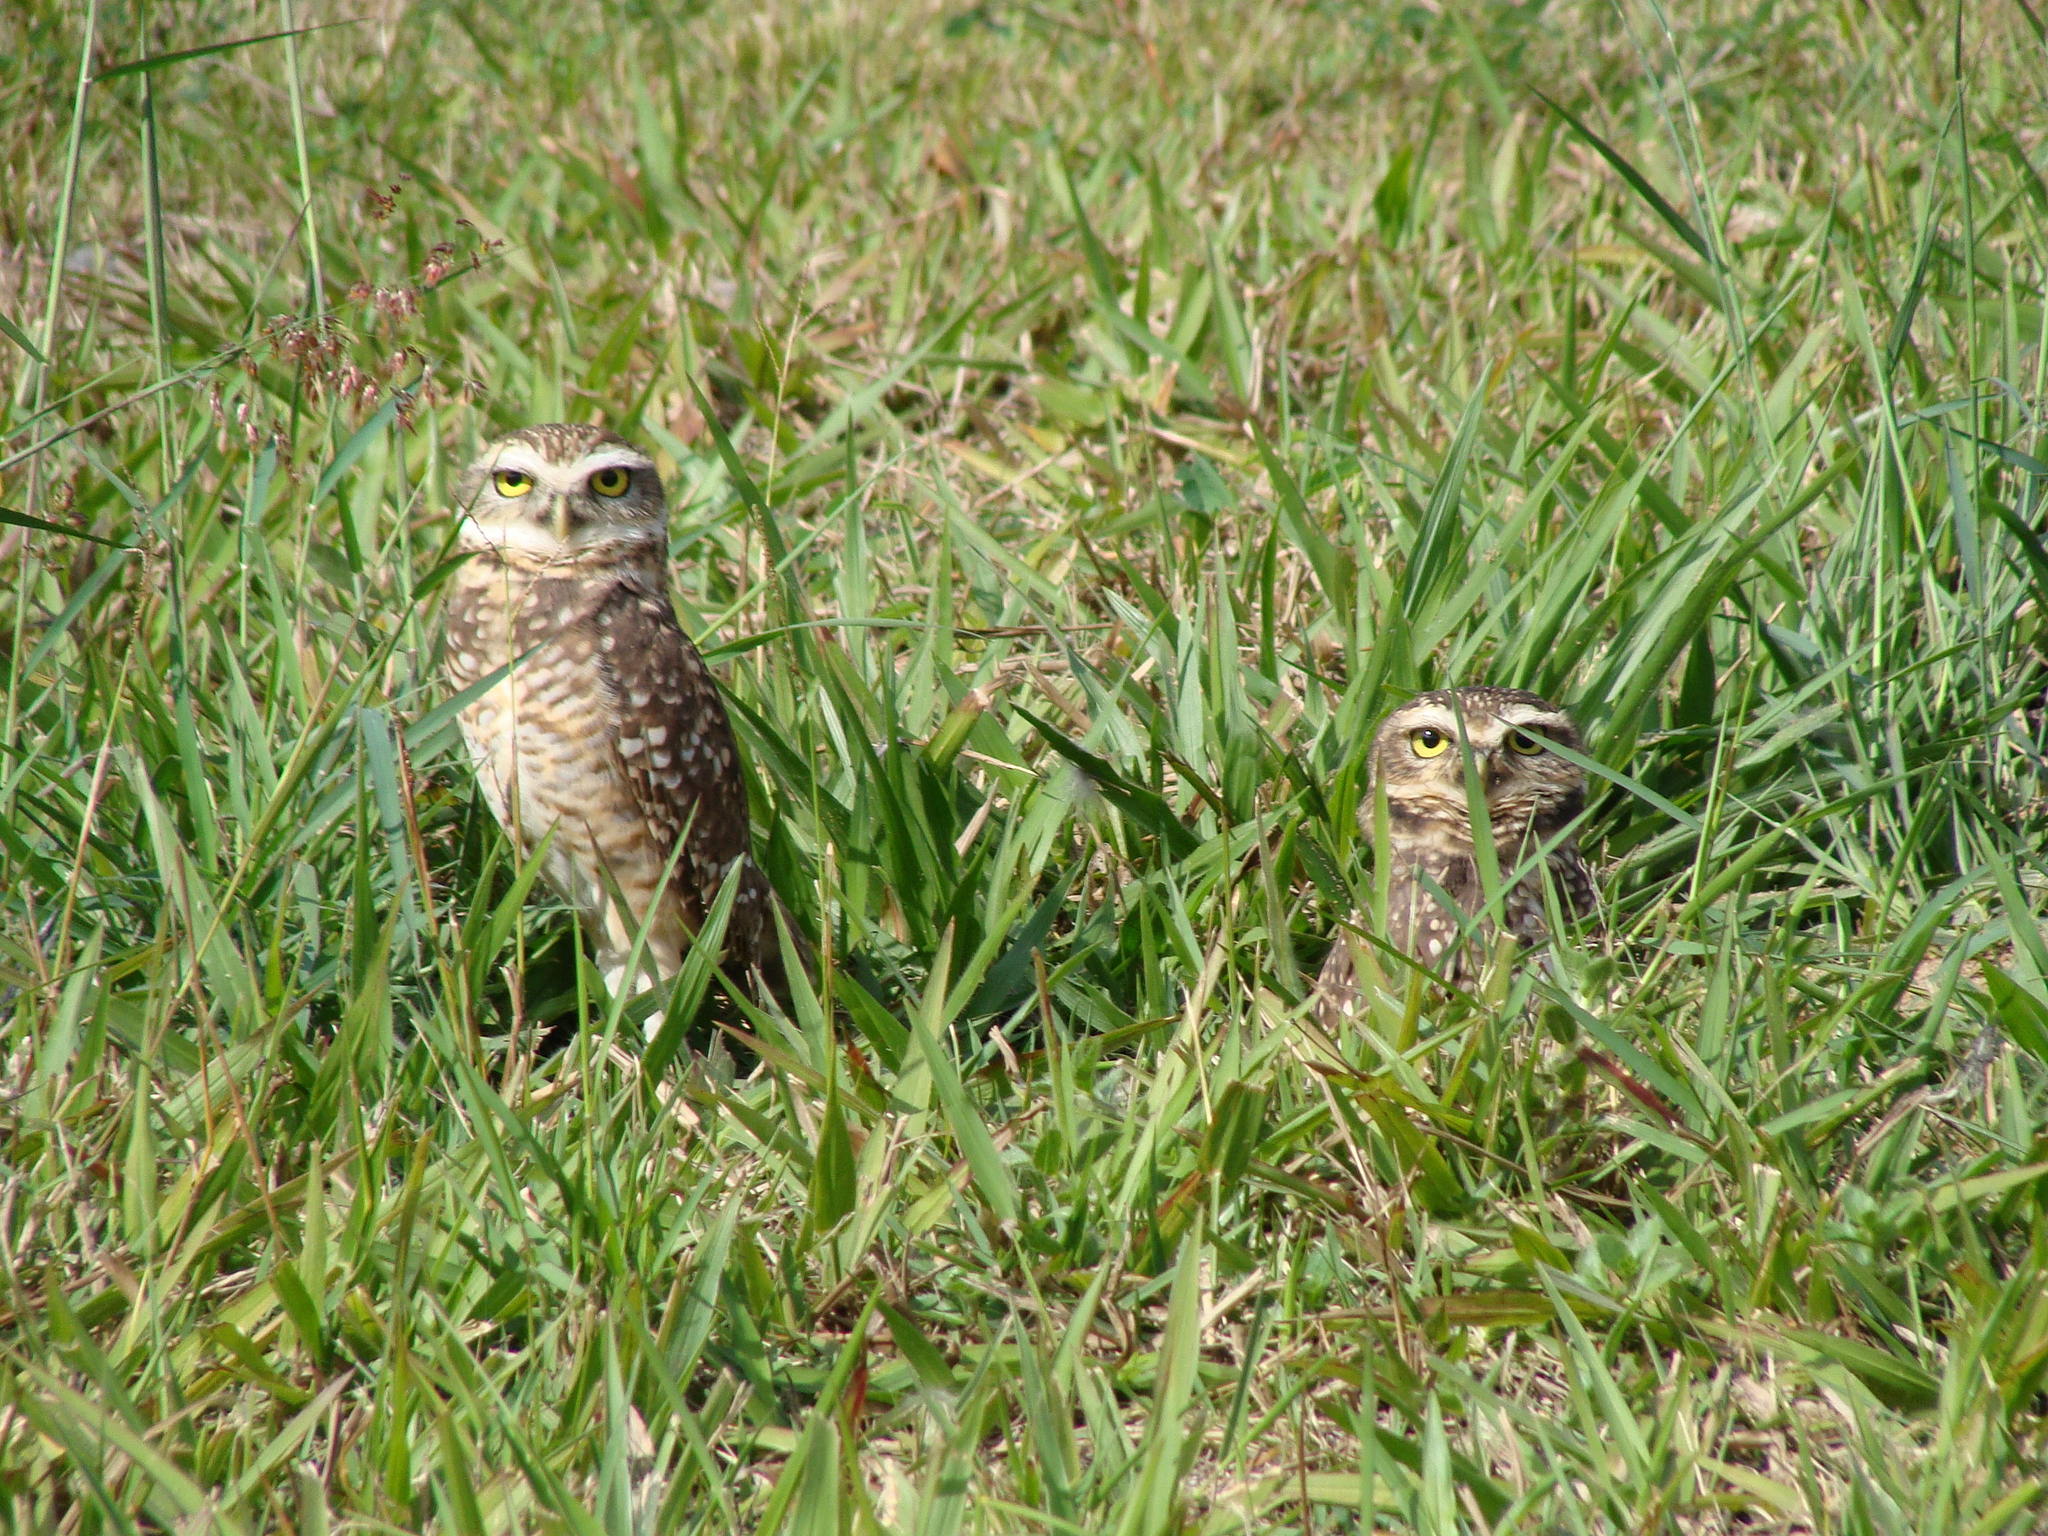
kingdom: Animalia
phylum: Chordata
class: Aves
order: Strigiformes
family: Strigidae
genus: Athene
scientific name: Athene cunicularia
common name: Burrowing owl
